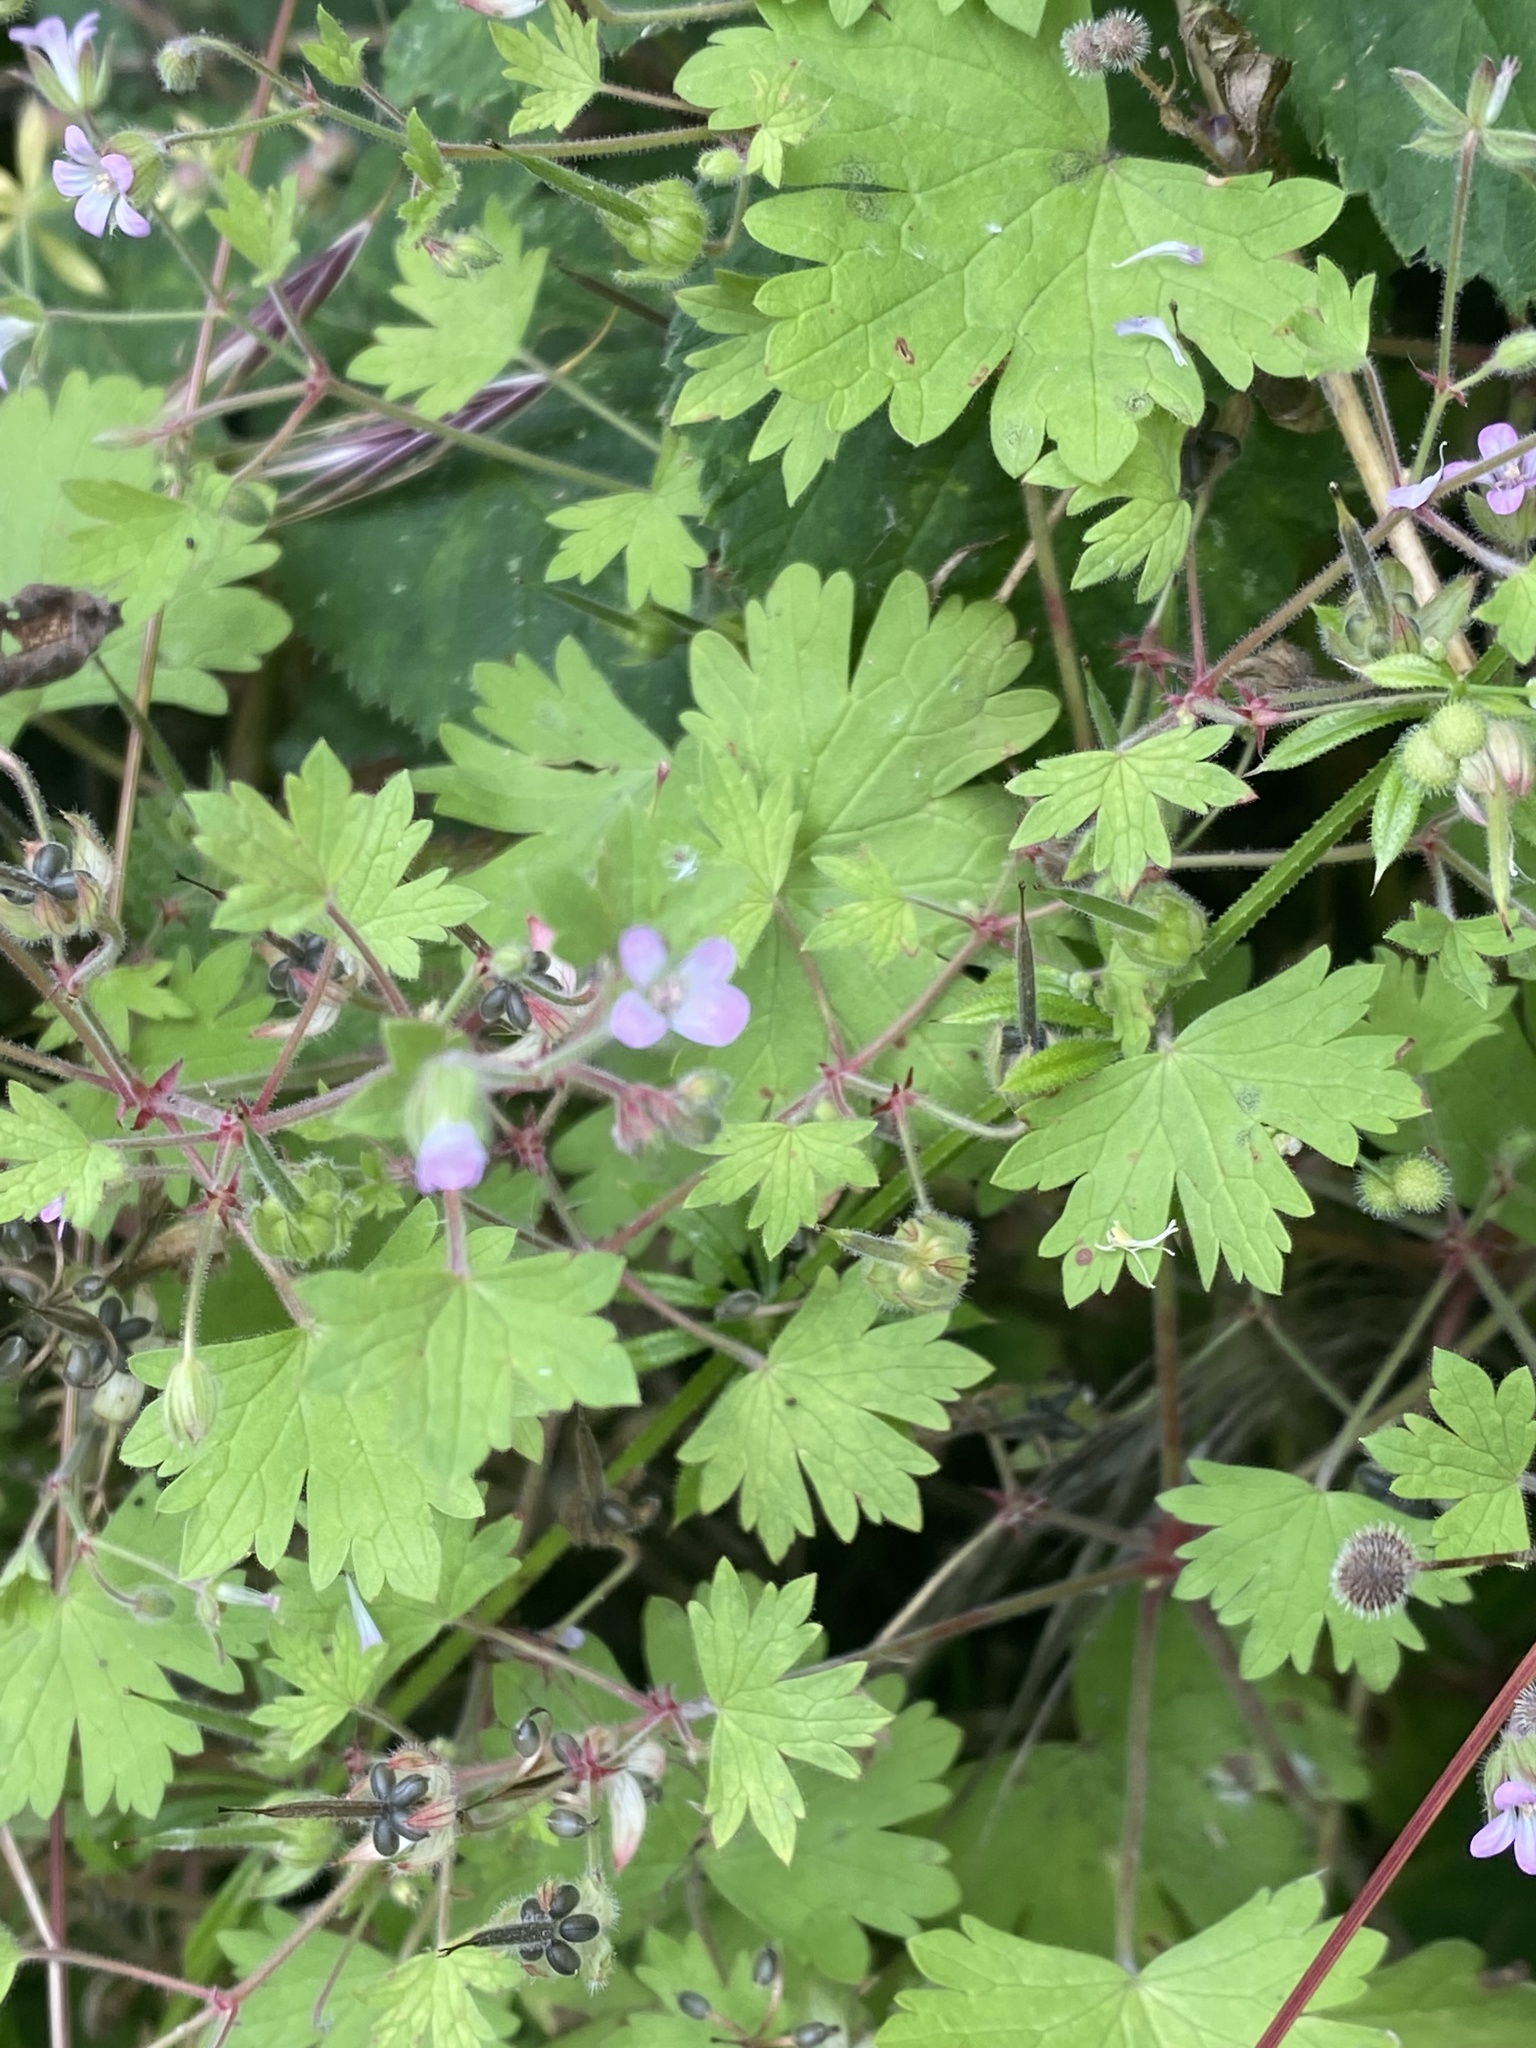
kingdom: Plantae
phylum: Tracheophyta
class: Magnoliopsida
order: Geraniales
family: Geraniaceae
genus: Geranium
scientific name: Geranium rotundifolium
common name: Round-leaved crane's-bill
